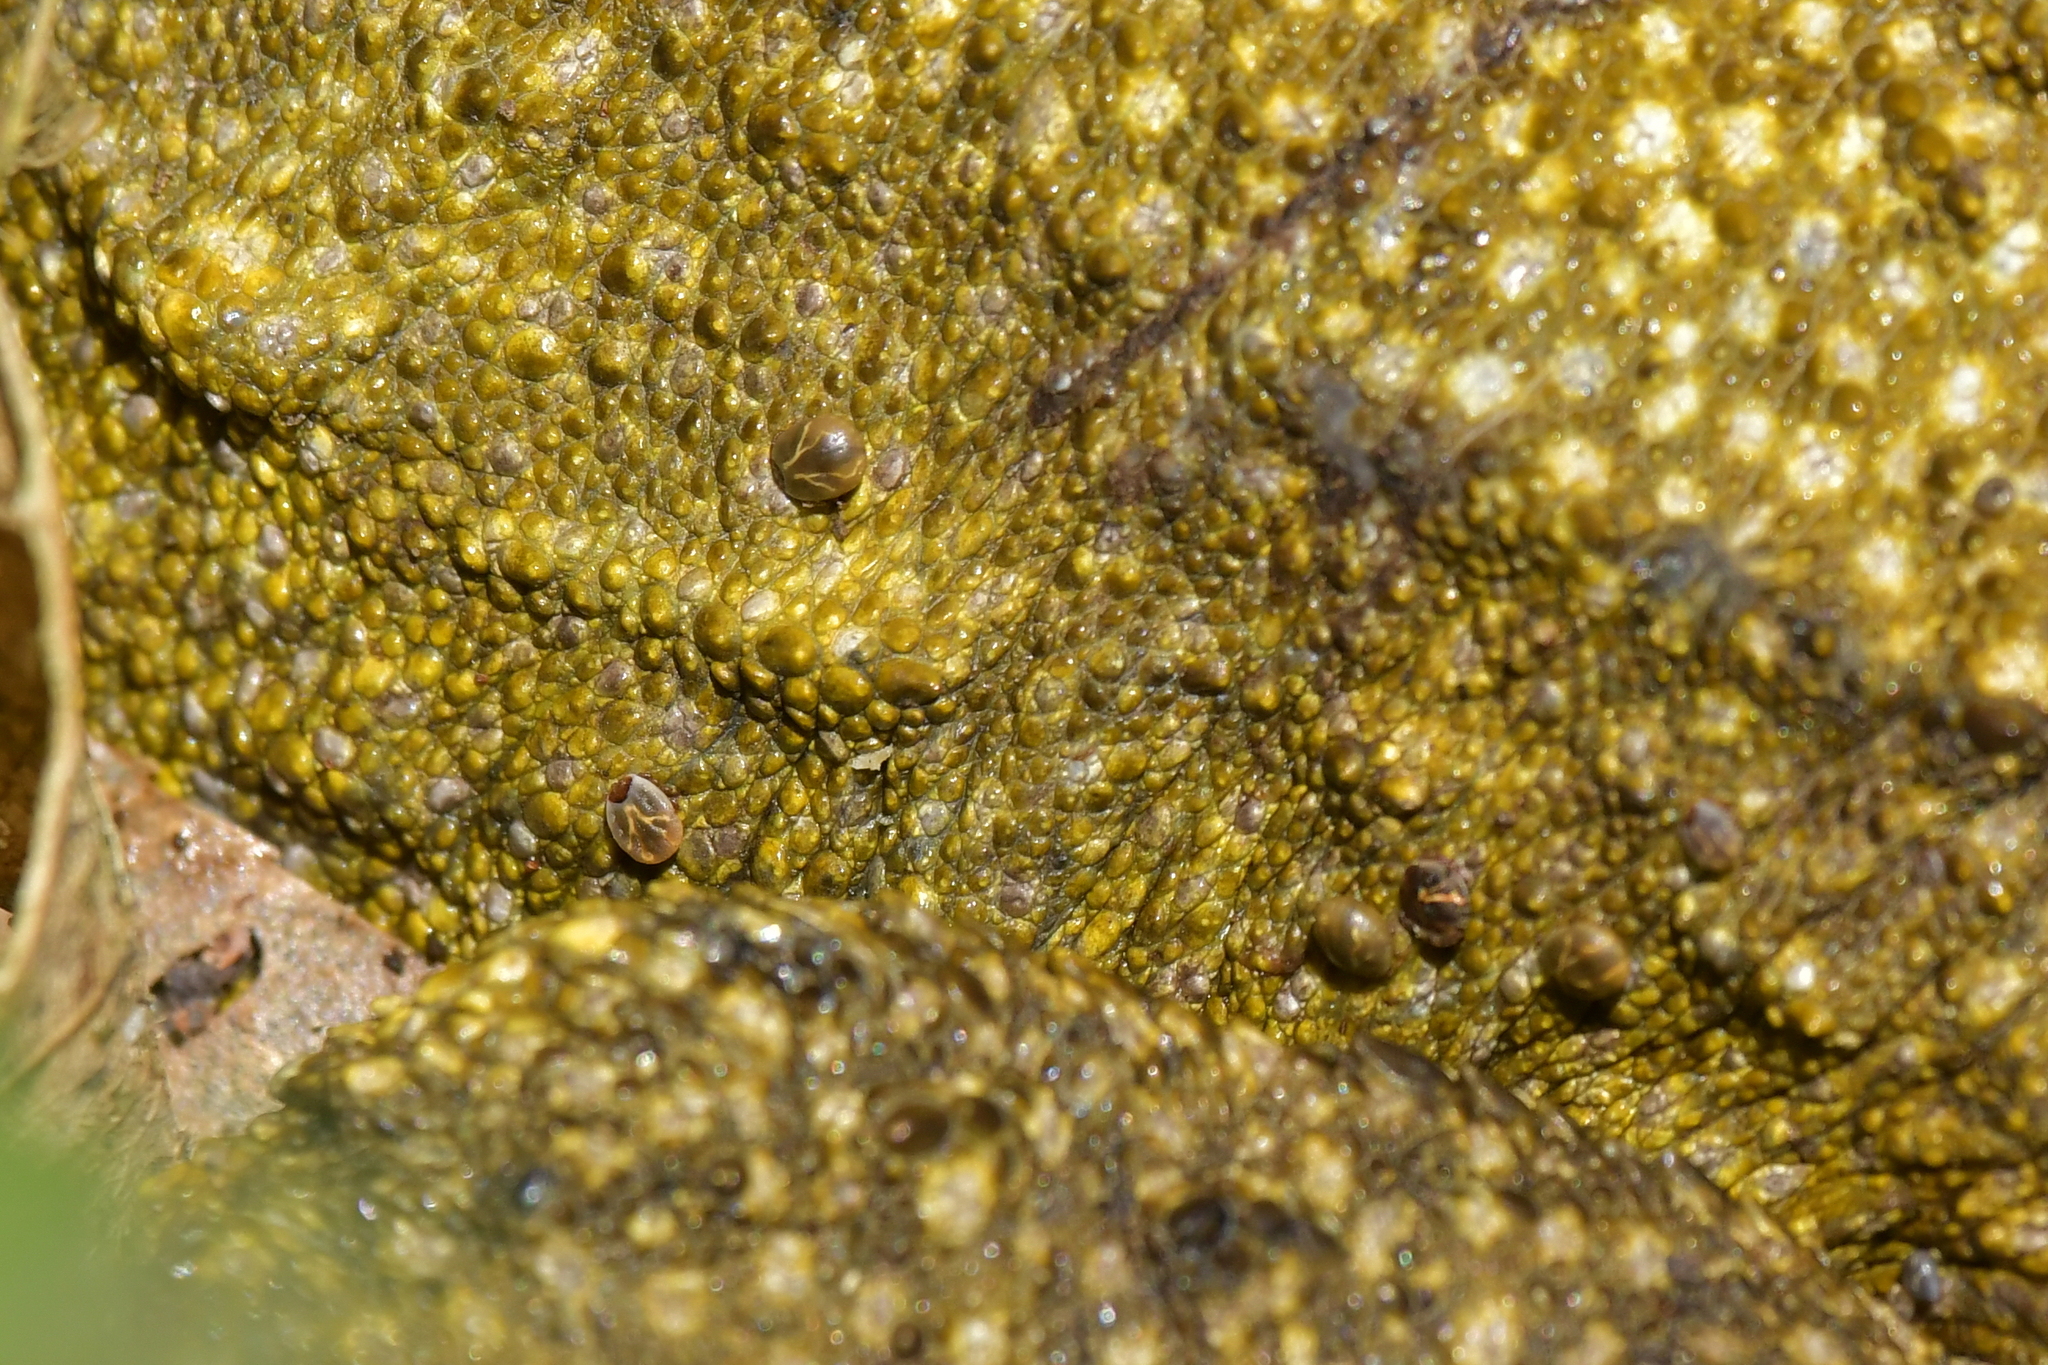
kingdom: Animalia
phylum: Arthropoda
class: Arachnida
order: Ixodida
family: Ixodidae
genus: Archaeocroton
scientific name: Archaeocroton sphenodonti
